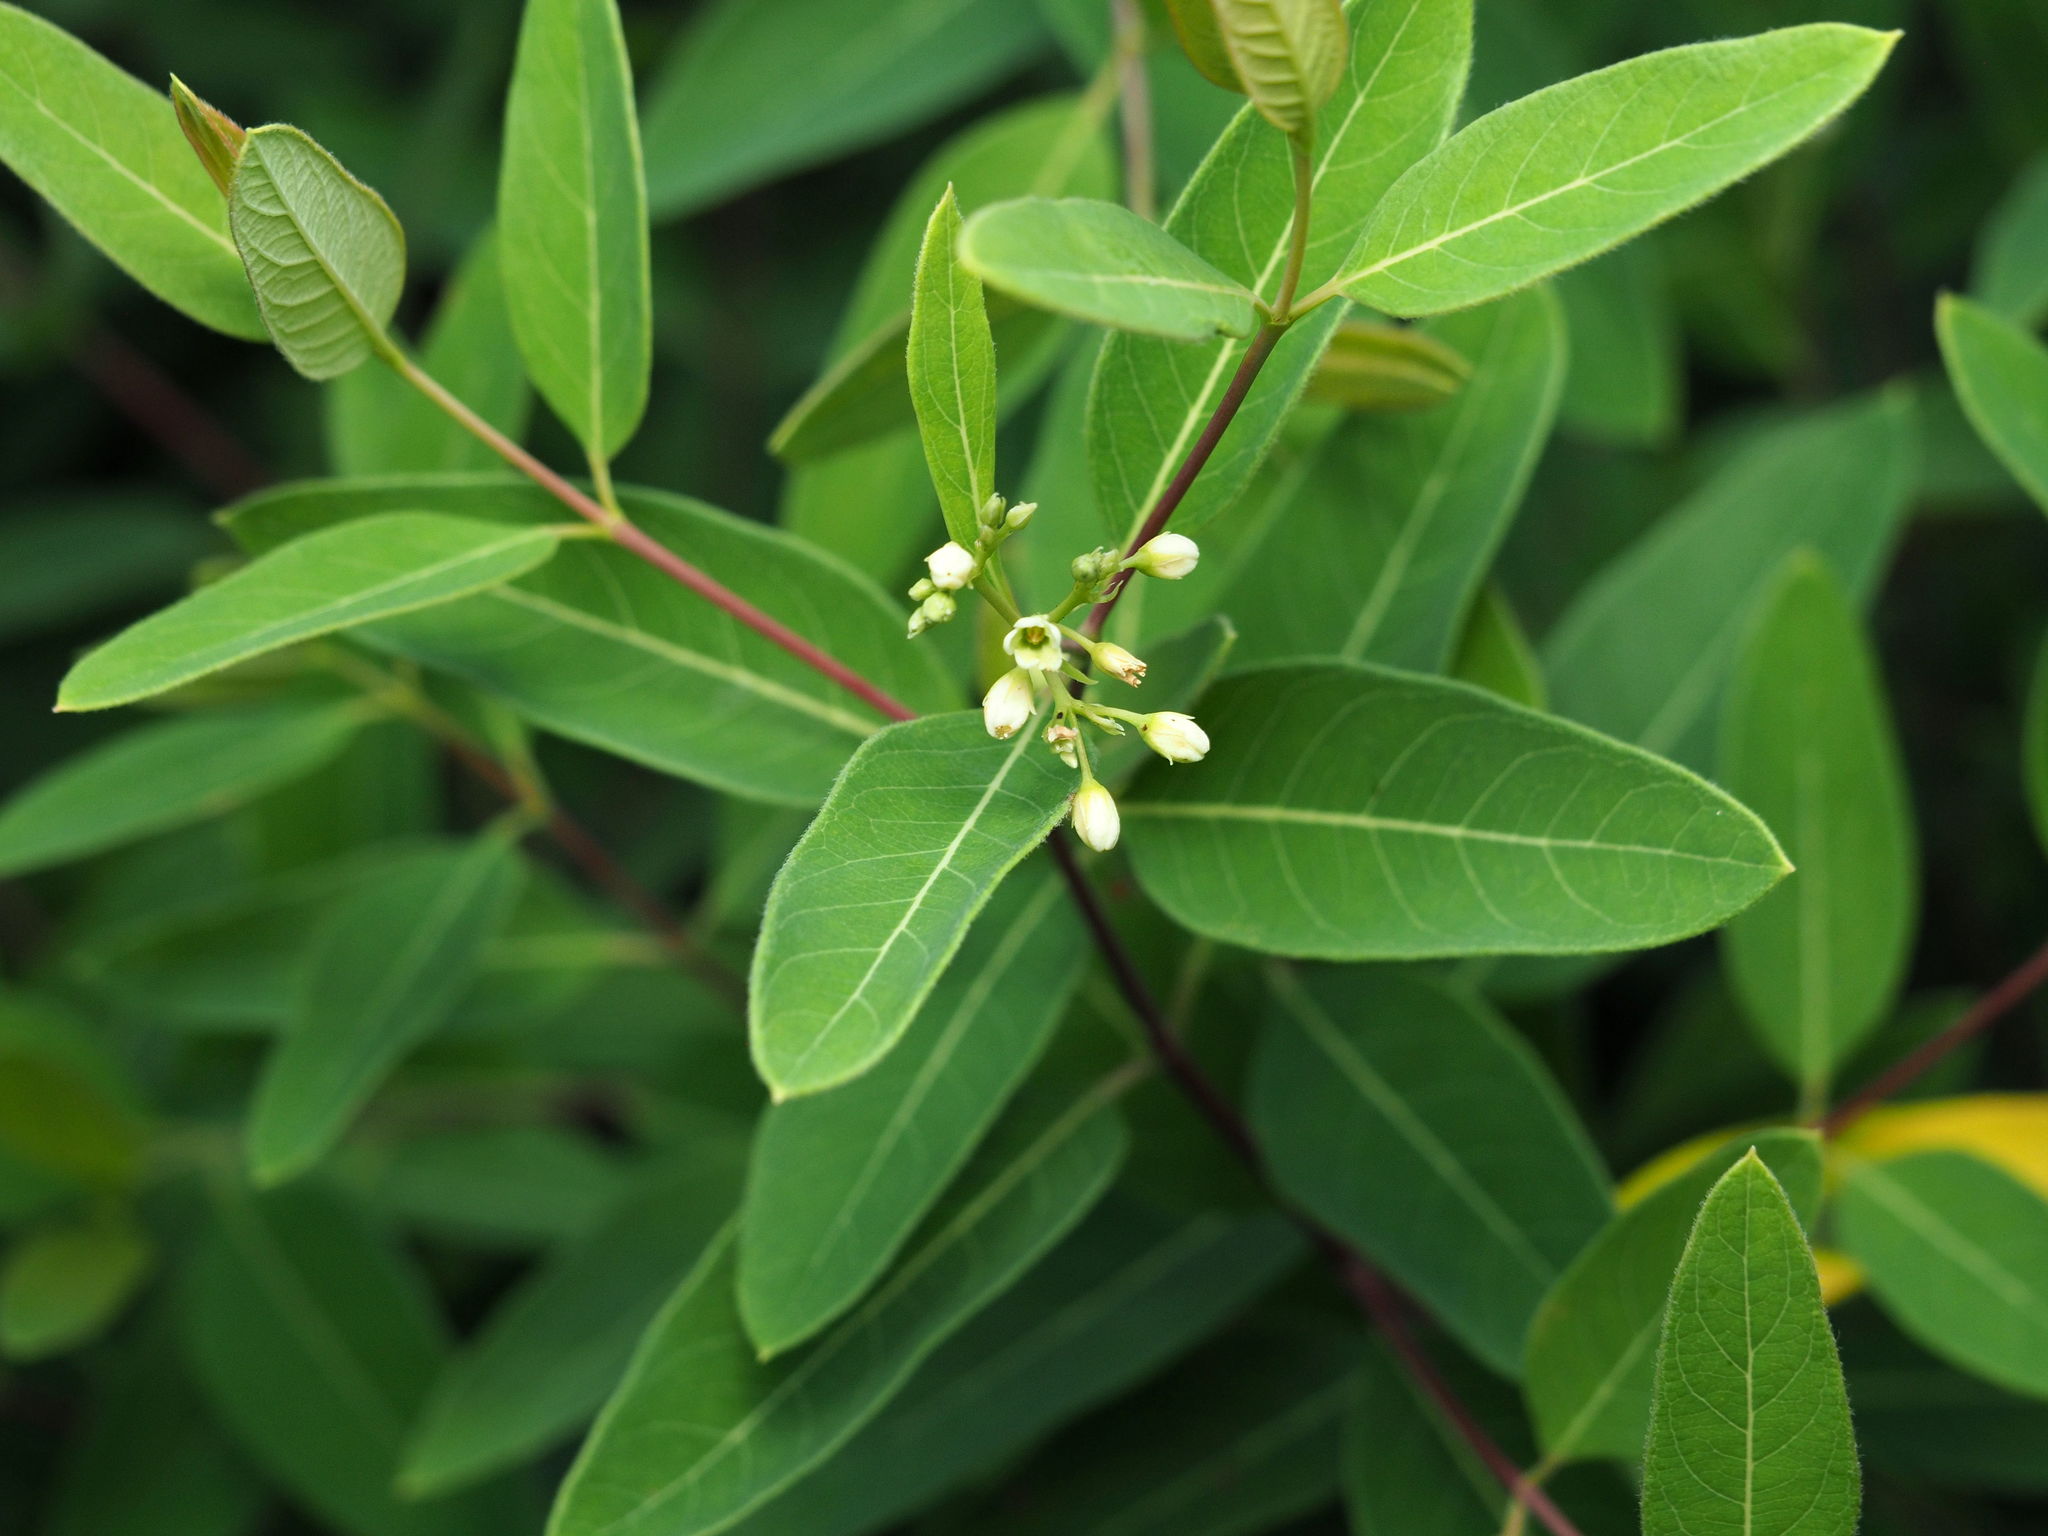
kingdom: Plantae
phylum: Tracheophyta
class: Magnoliopsida
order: Gentianales
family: Apocynaceae
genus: Apocynum
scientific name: Apocynum cannabinum
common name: Hemp dogbane
